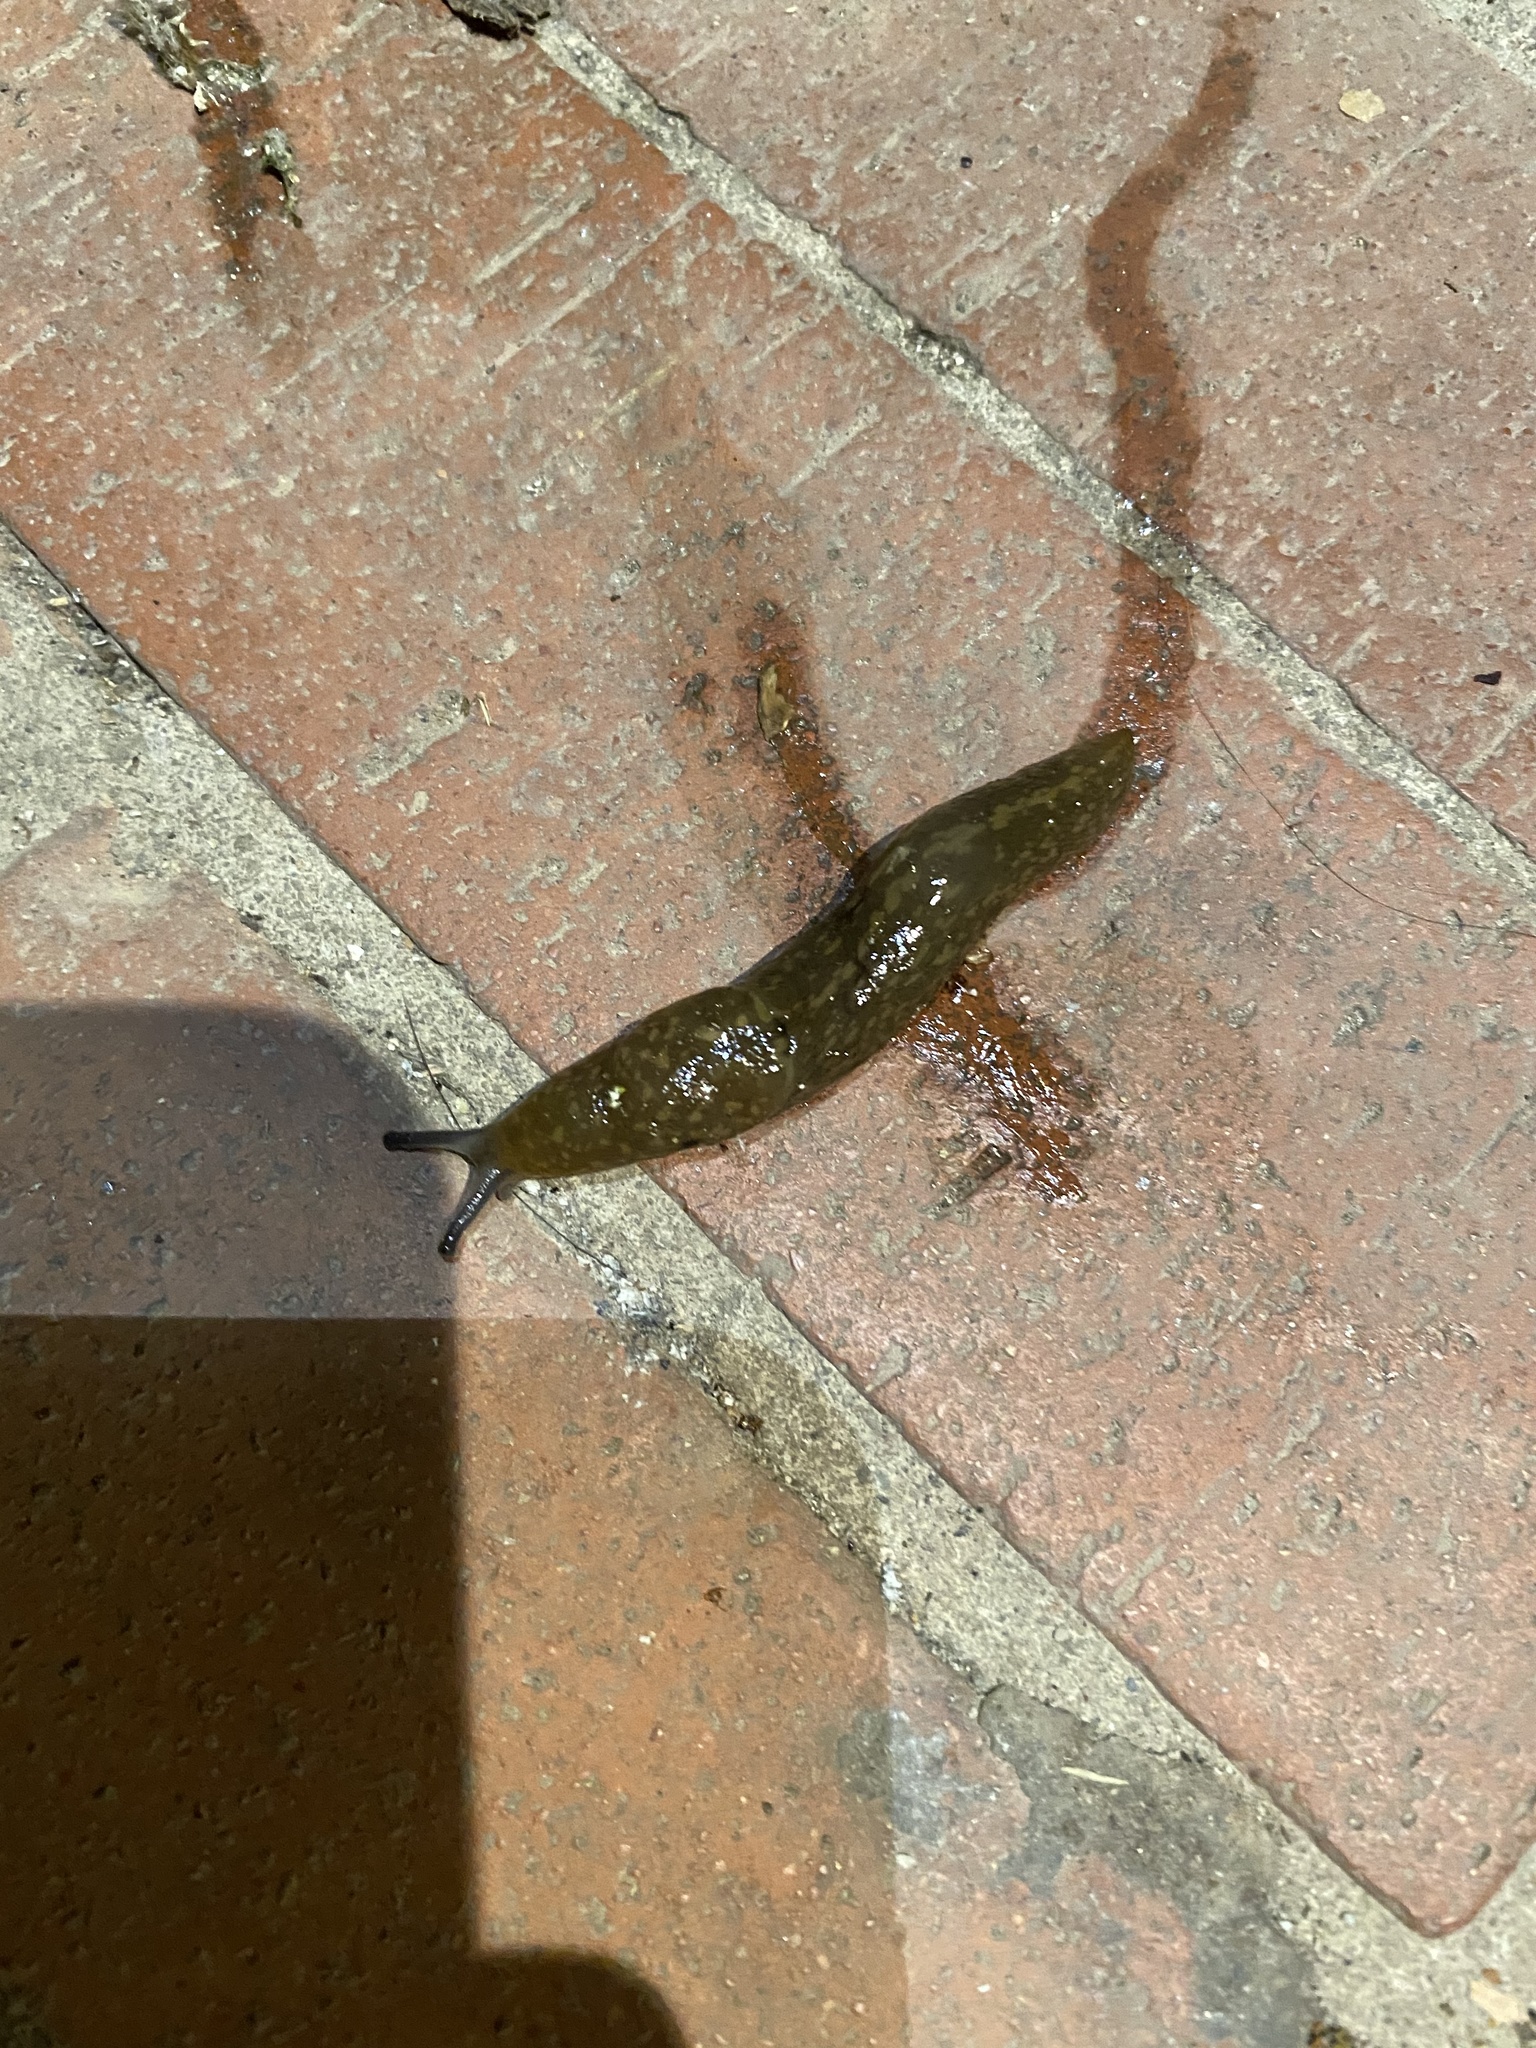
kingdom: Animalia
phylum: Mollusca
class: Gastropoda
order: Stylommatophora
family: Limacidae
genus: Limacus
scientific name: Limacus flavus
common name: Yellow gardenslug
